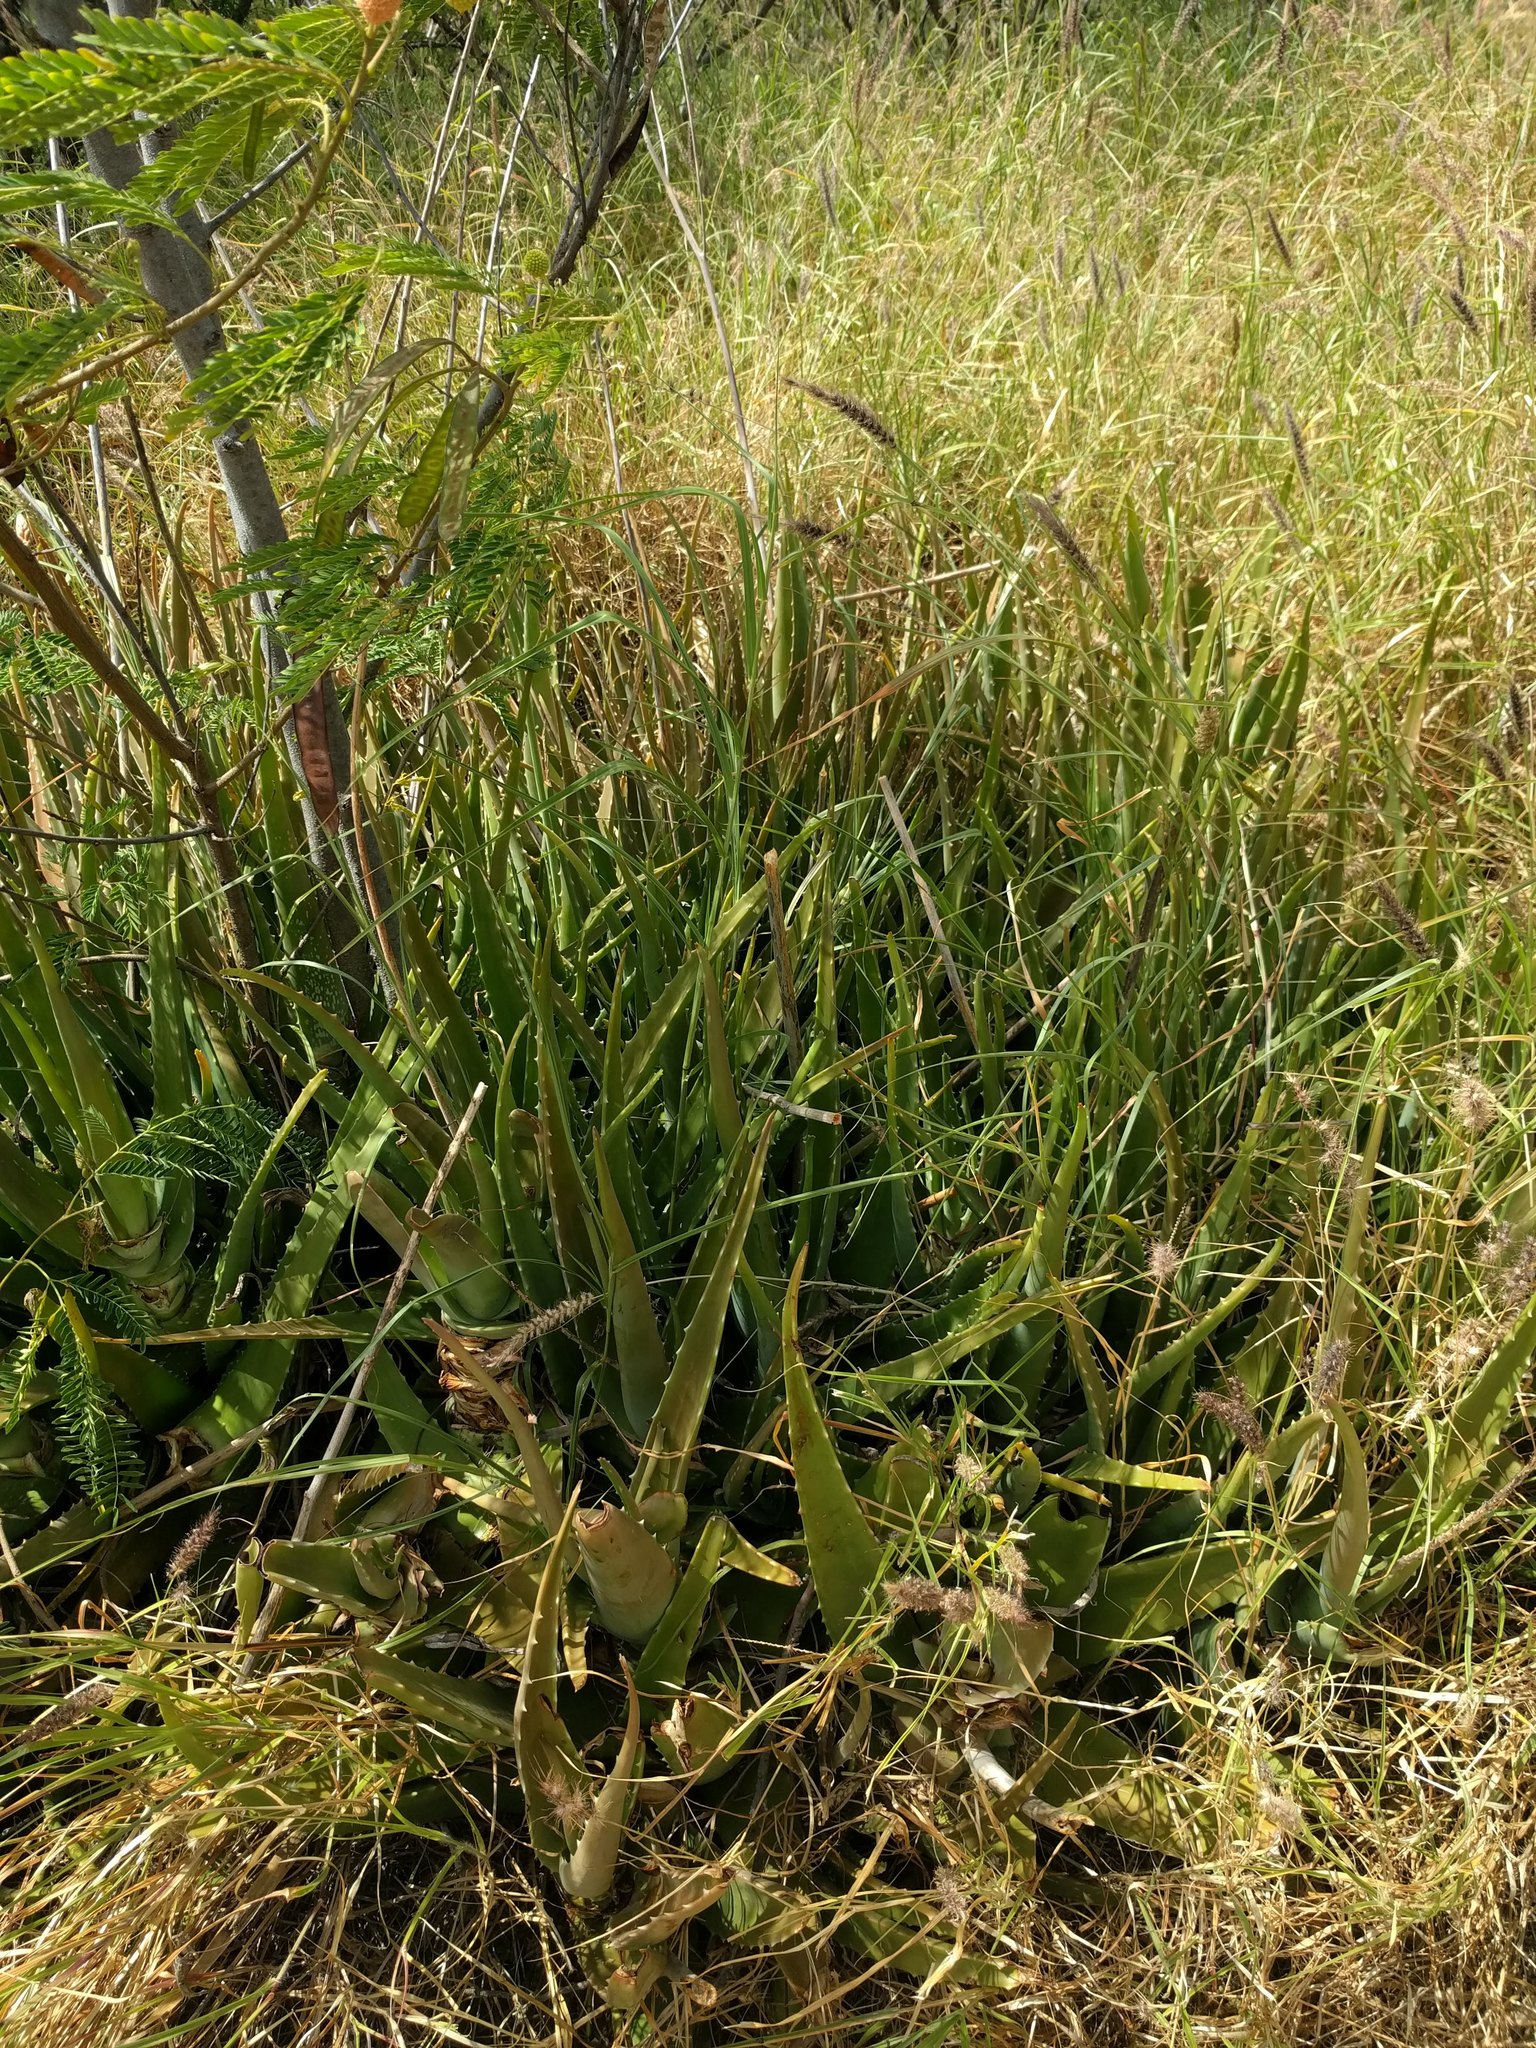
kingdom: Plantae
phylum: Tracheophyta
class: Liliopsida
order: Asparagales
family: Asphodelaceae
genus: Aloe
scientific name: Aloe vera
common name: Barbados aloe
